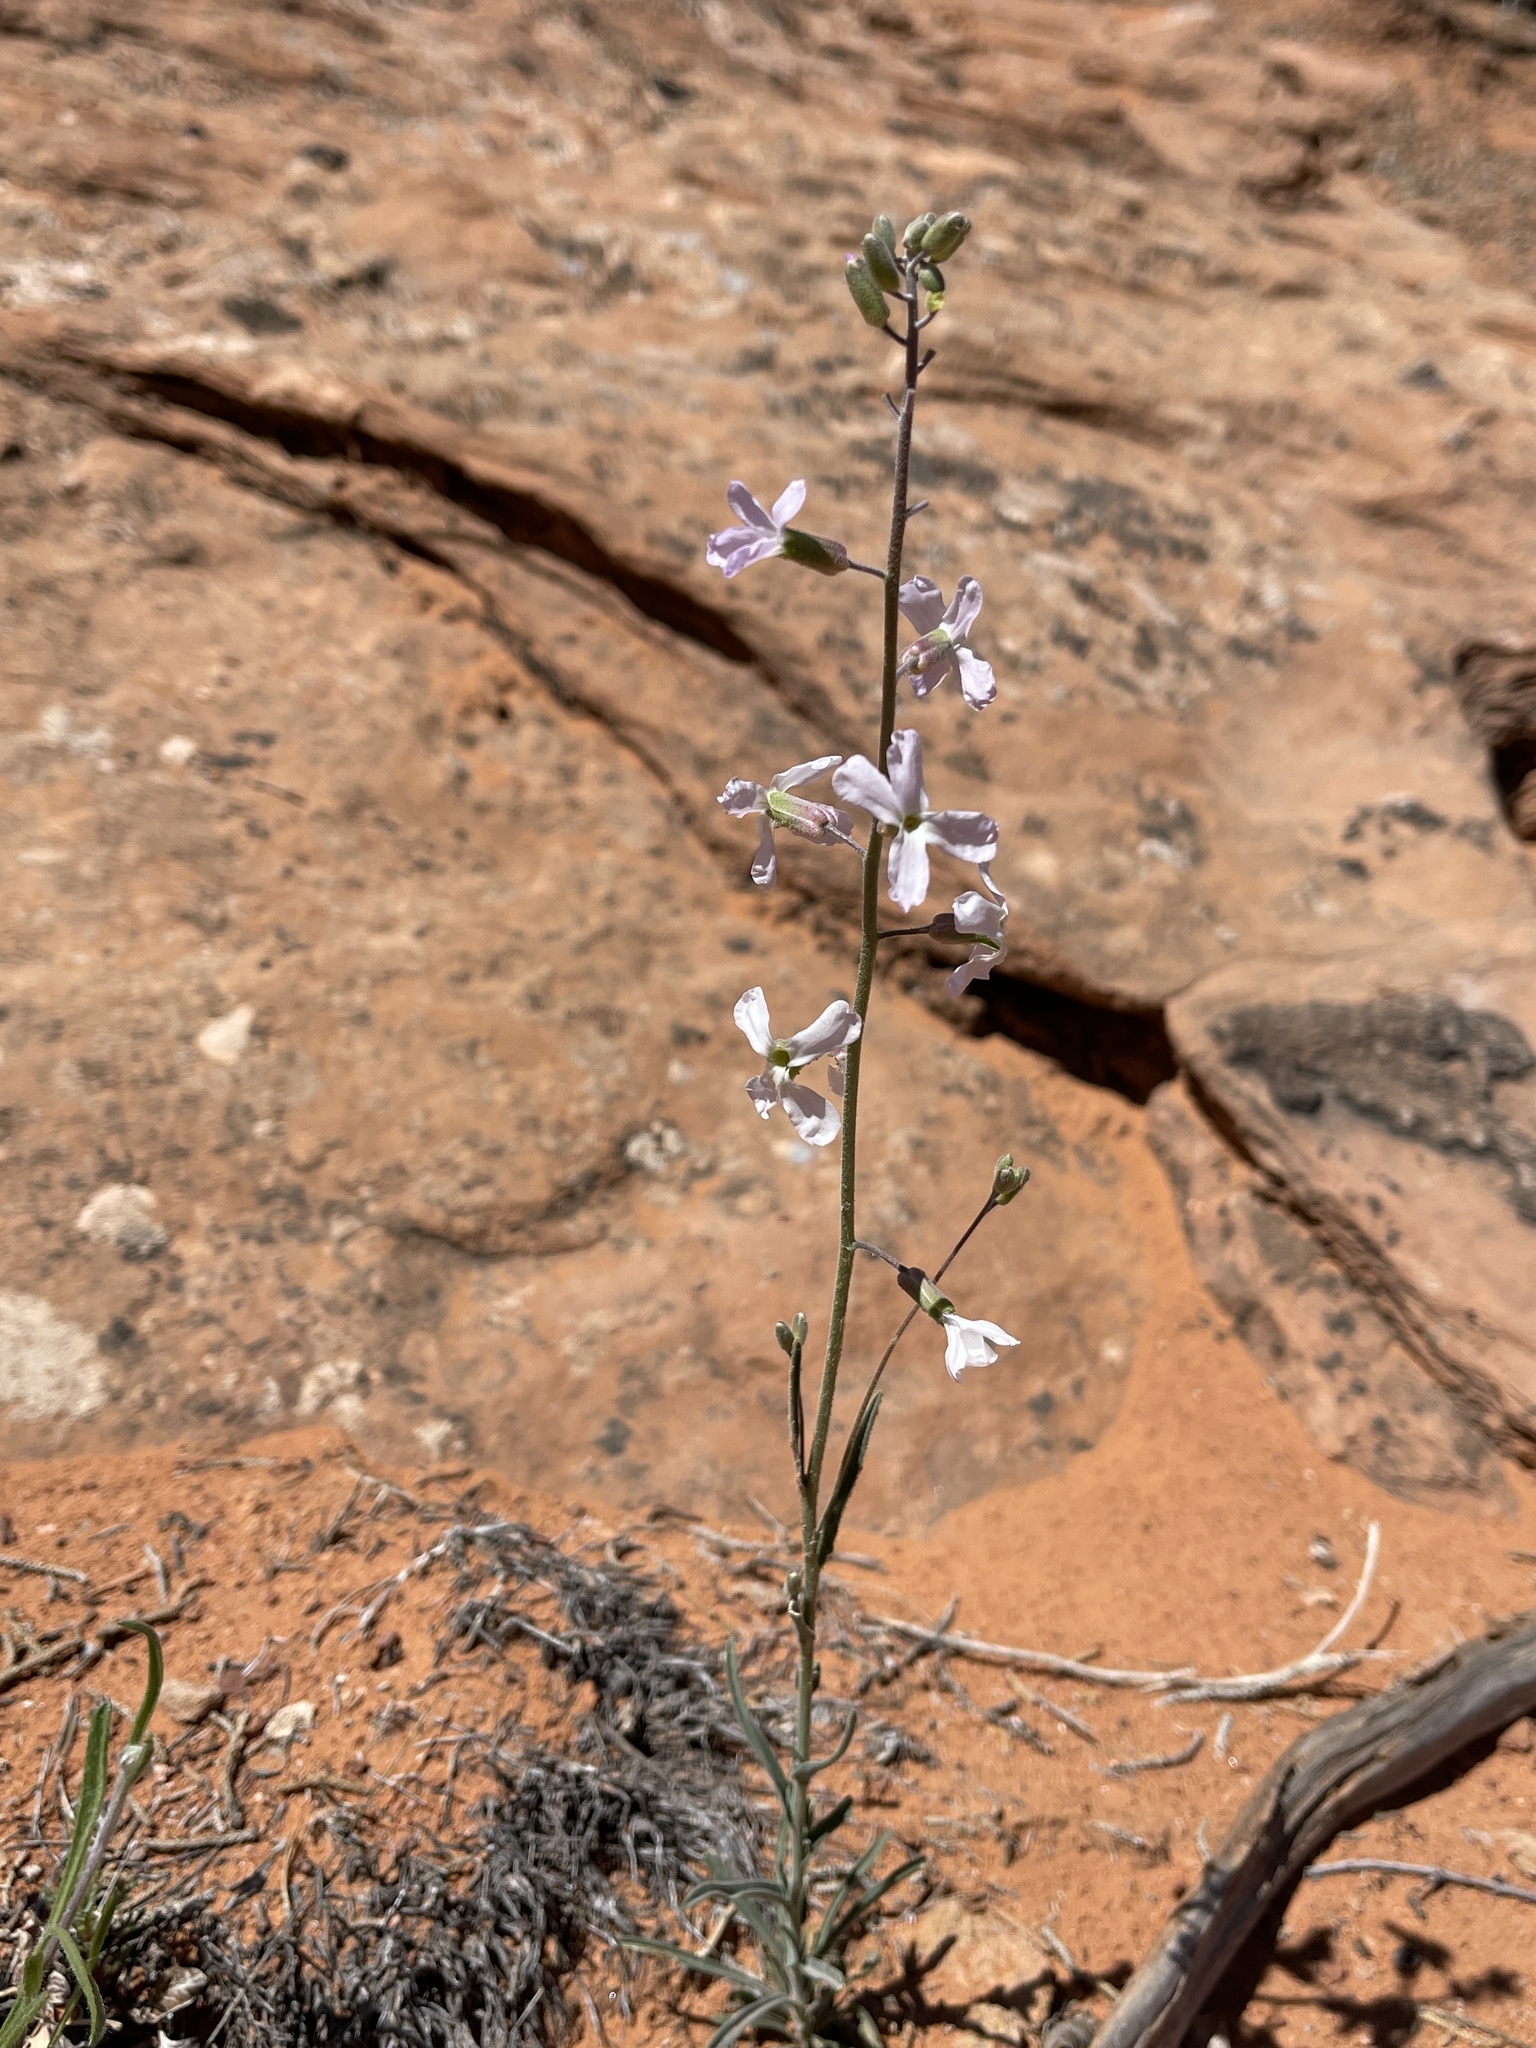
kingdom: Plantae
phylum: Tracheophyta
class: Magnoliopsida
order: Brassicales
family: Brassicaceae
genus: Boechera
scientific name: Boechera formosa
